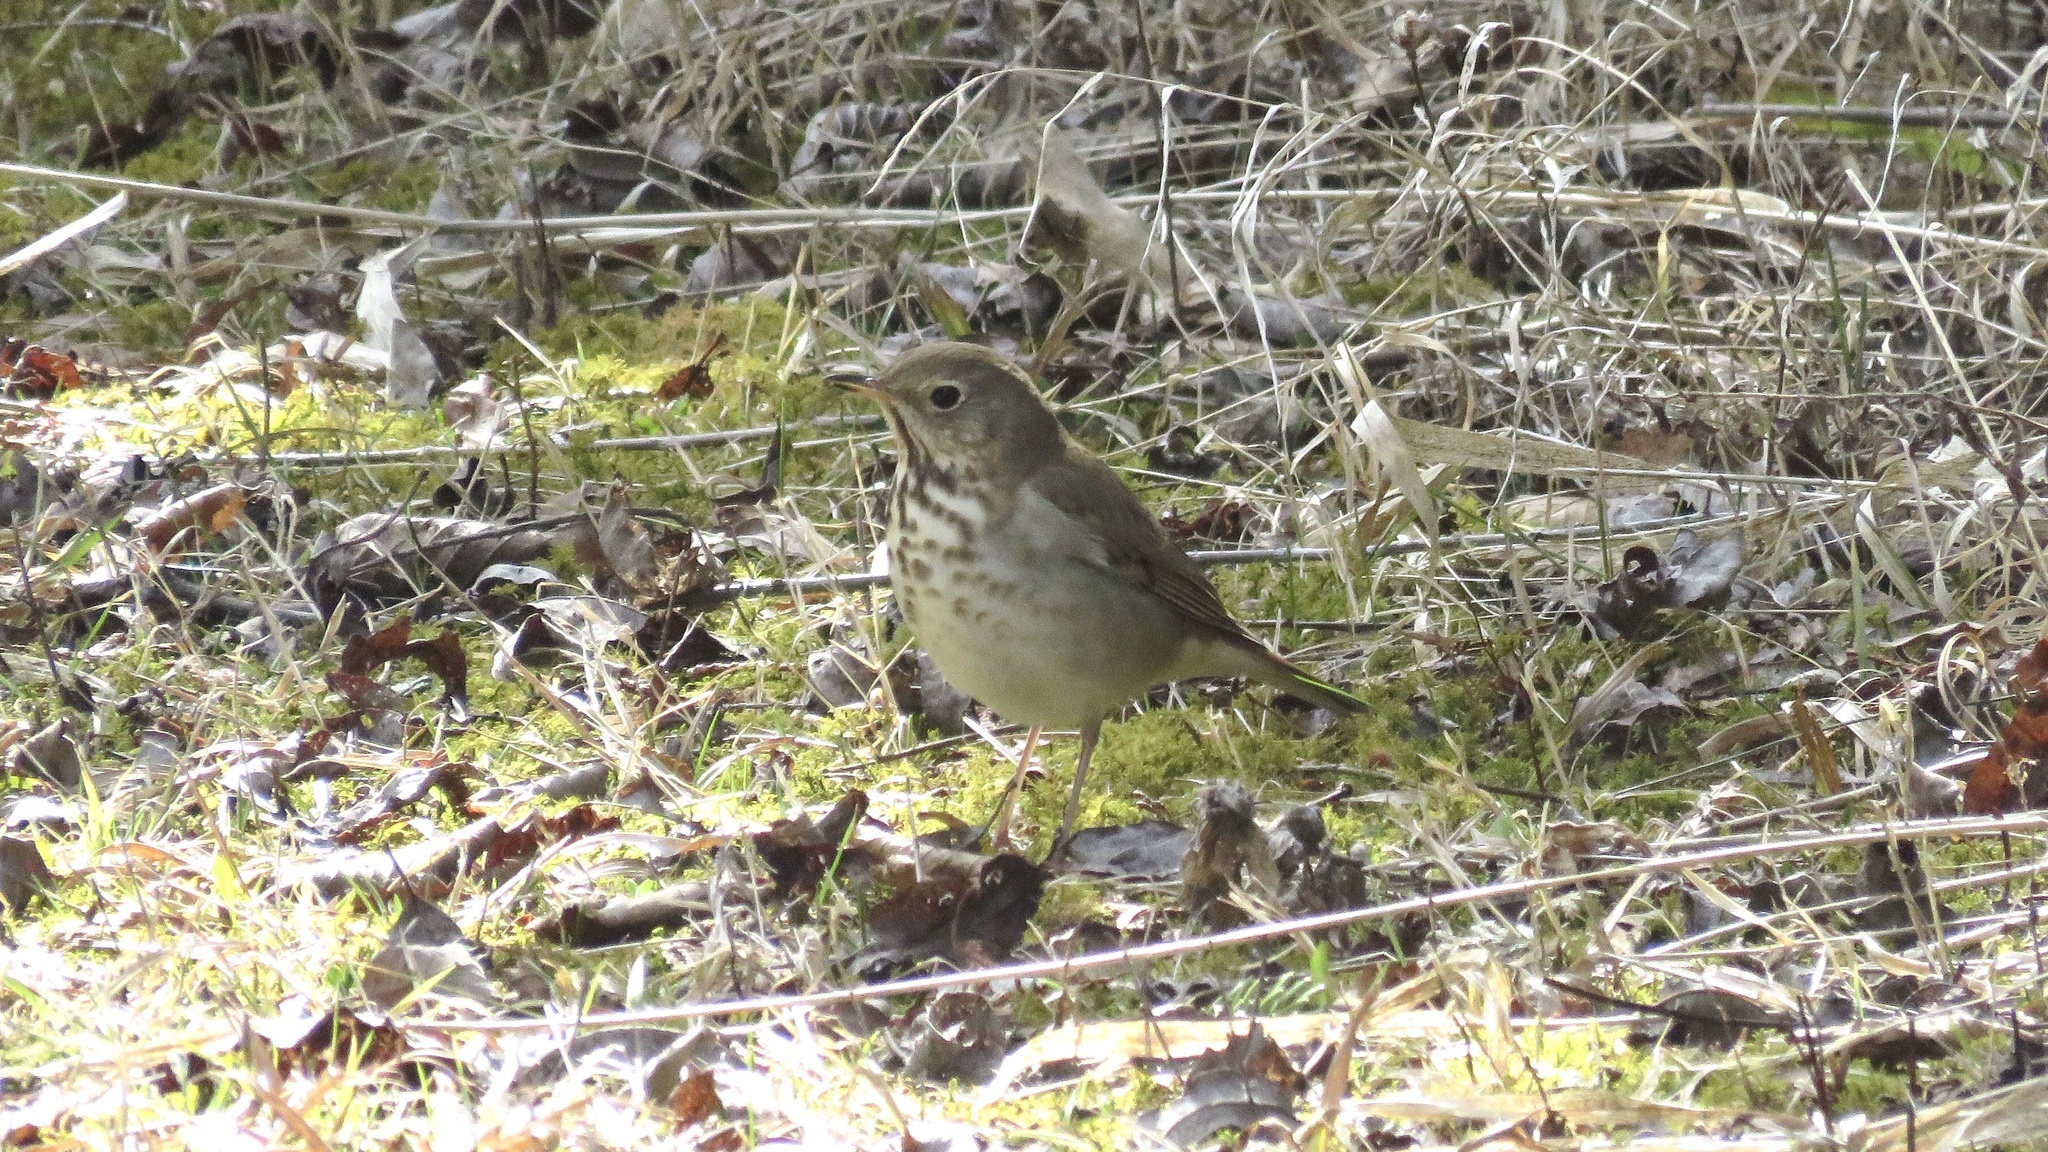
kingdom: Animalia
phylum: Chordata
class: Aves
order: Passeriformes
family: Turdidae
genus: Catharus
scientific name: Catharus guttatus
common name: Hermit thrush
